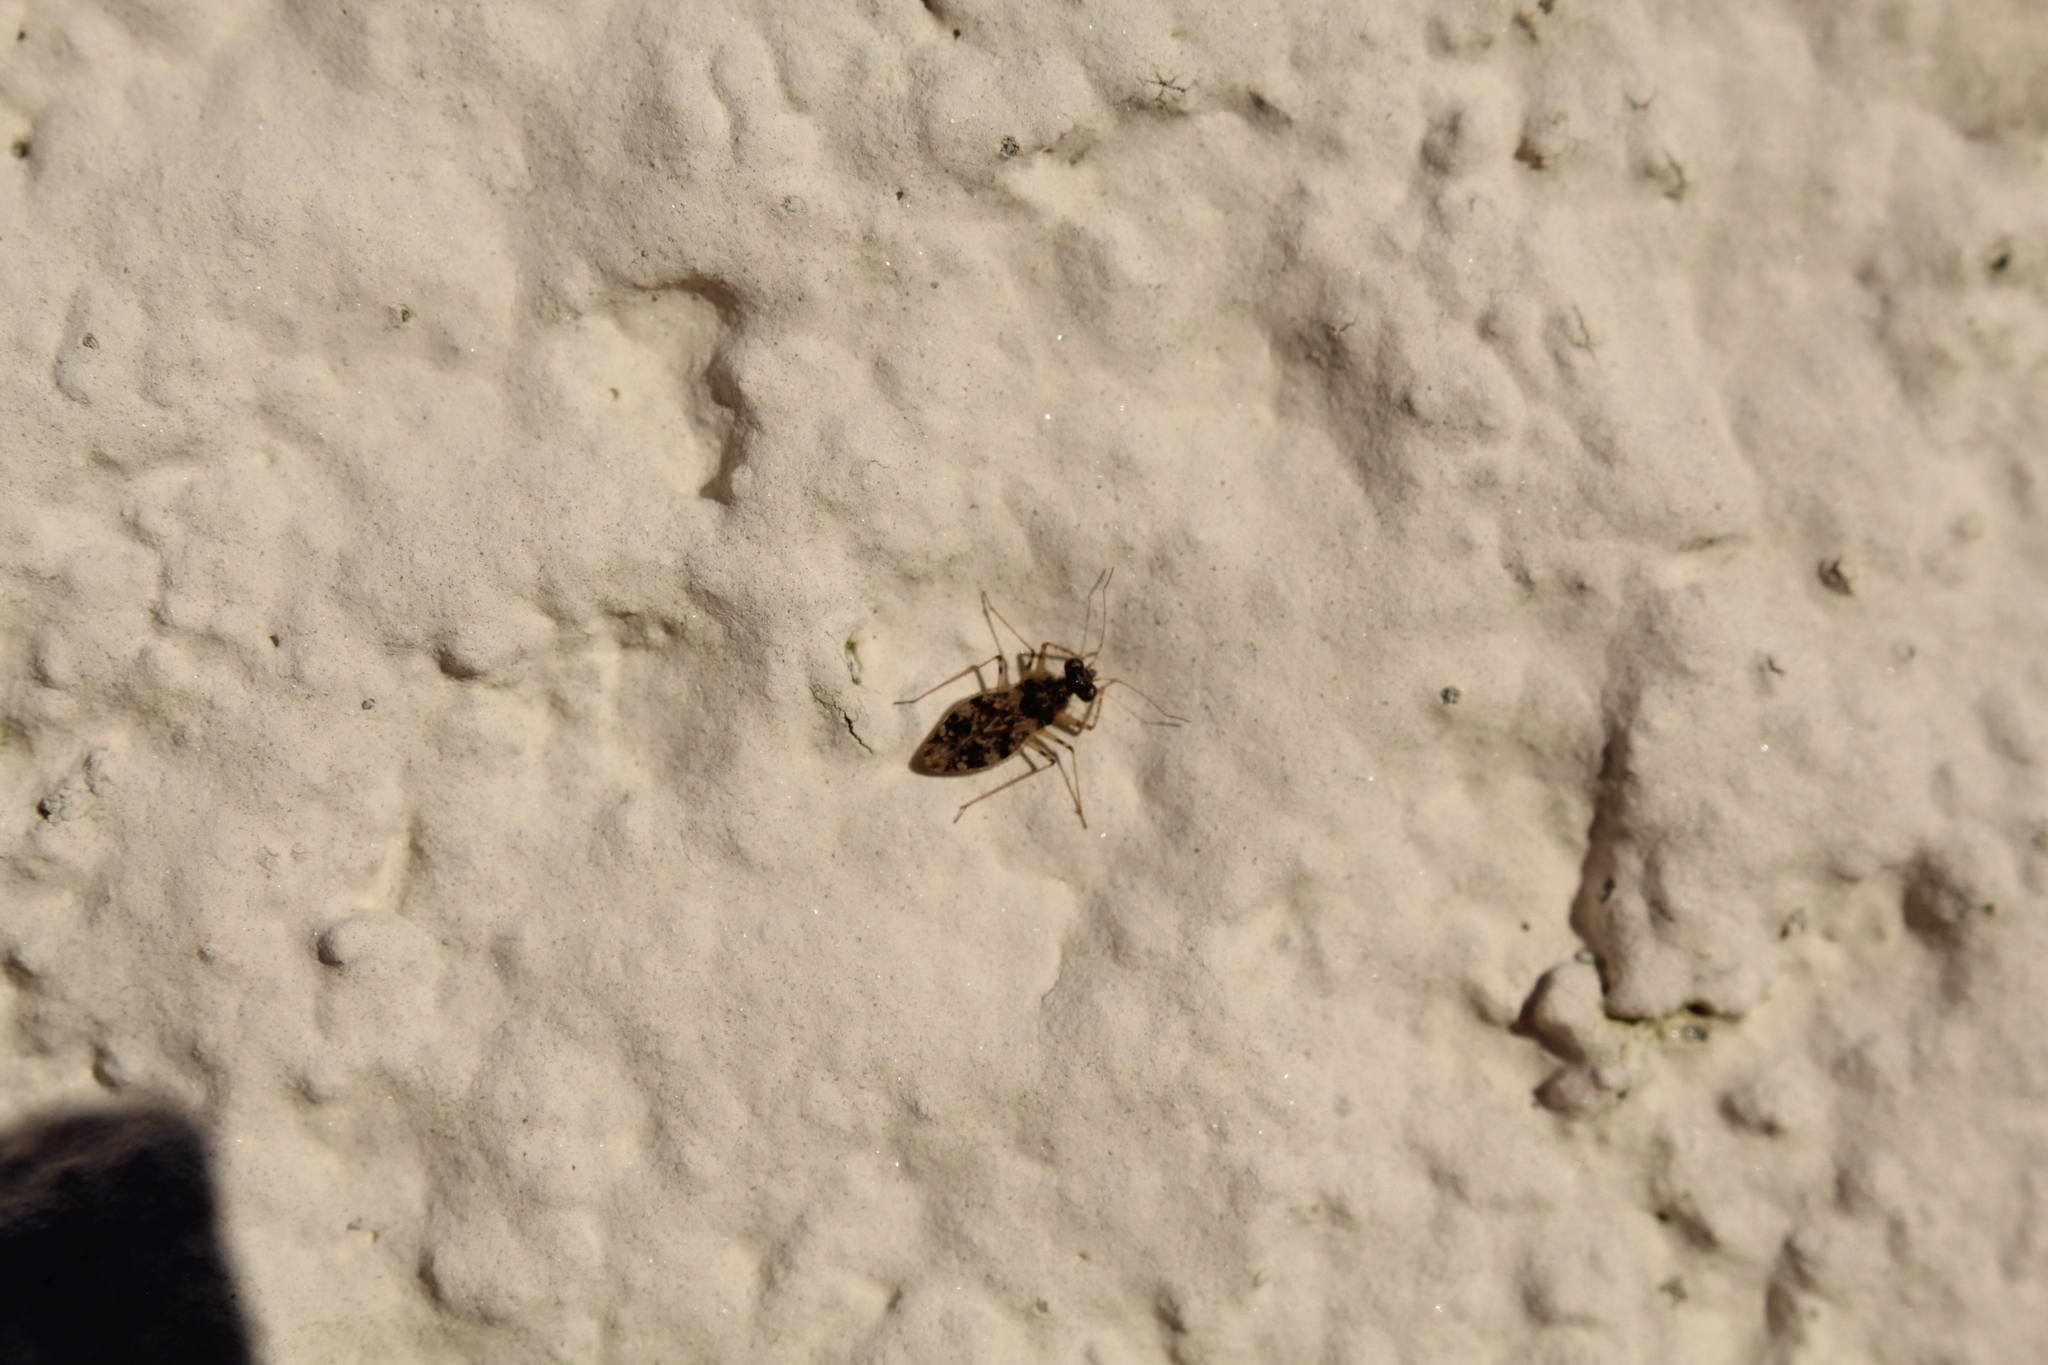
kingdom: Animalia
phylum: Arthropoda
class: Insecta
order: Hemiptera
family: Leptopodidae
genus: Leptopus
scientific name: Leptopus marmoratus
